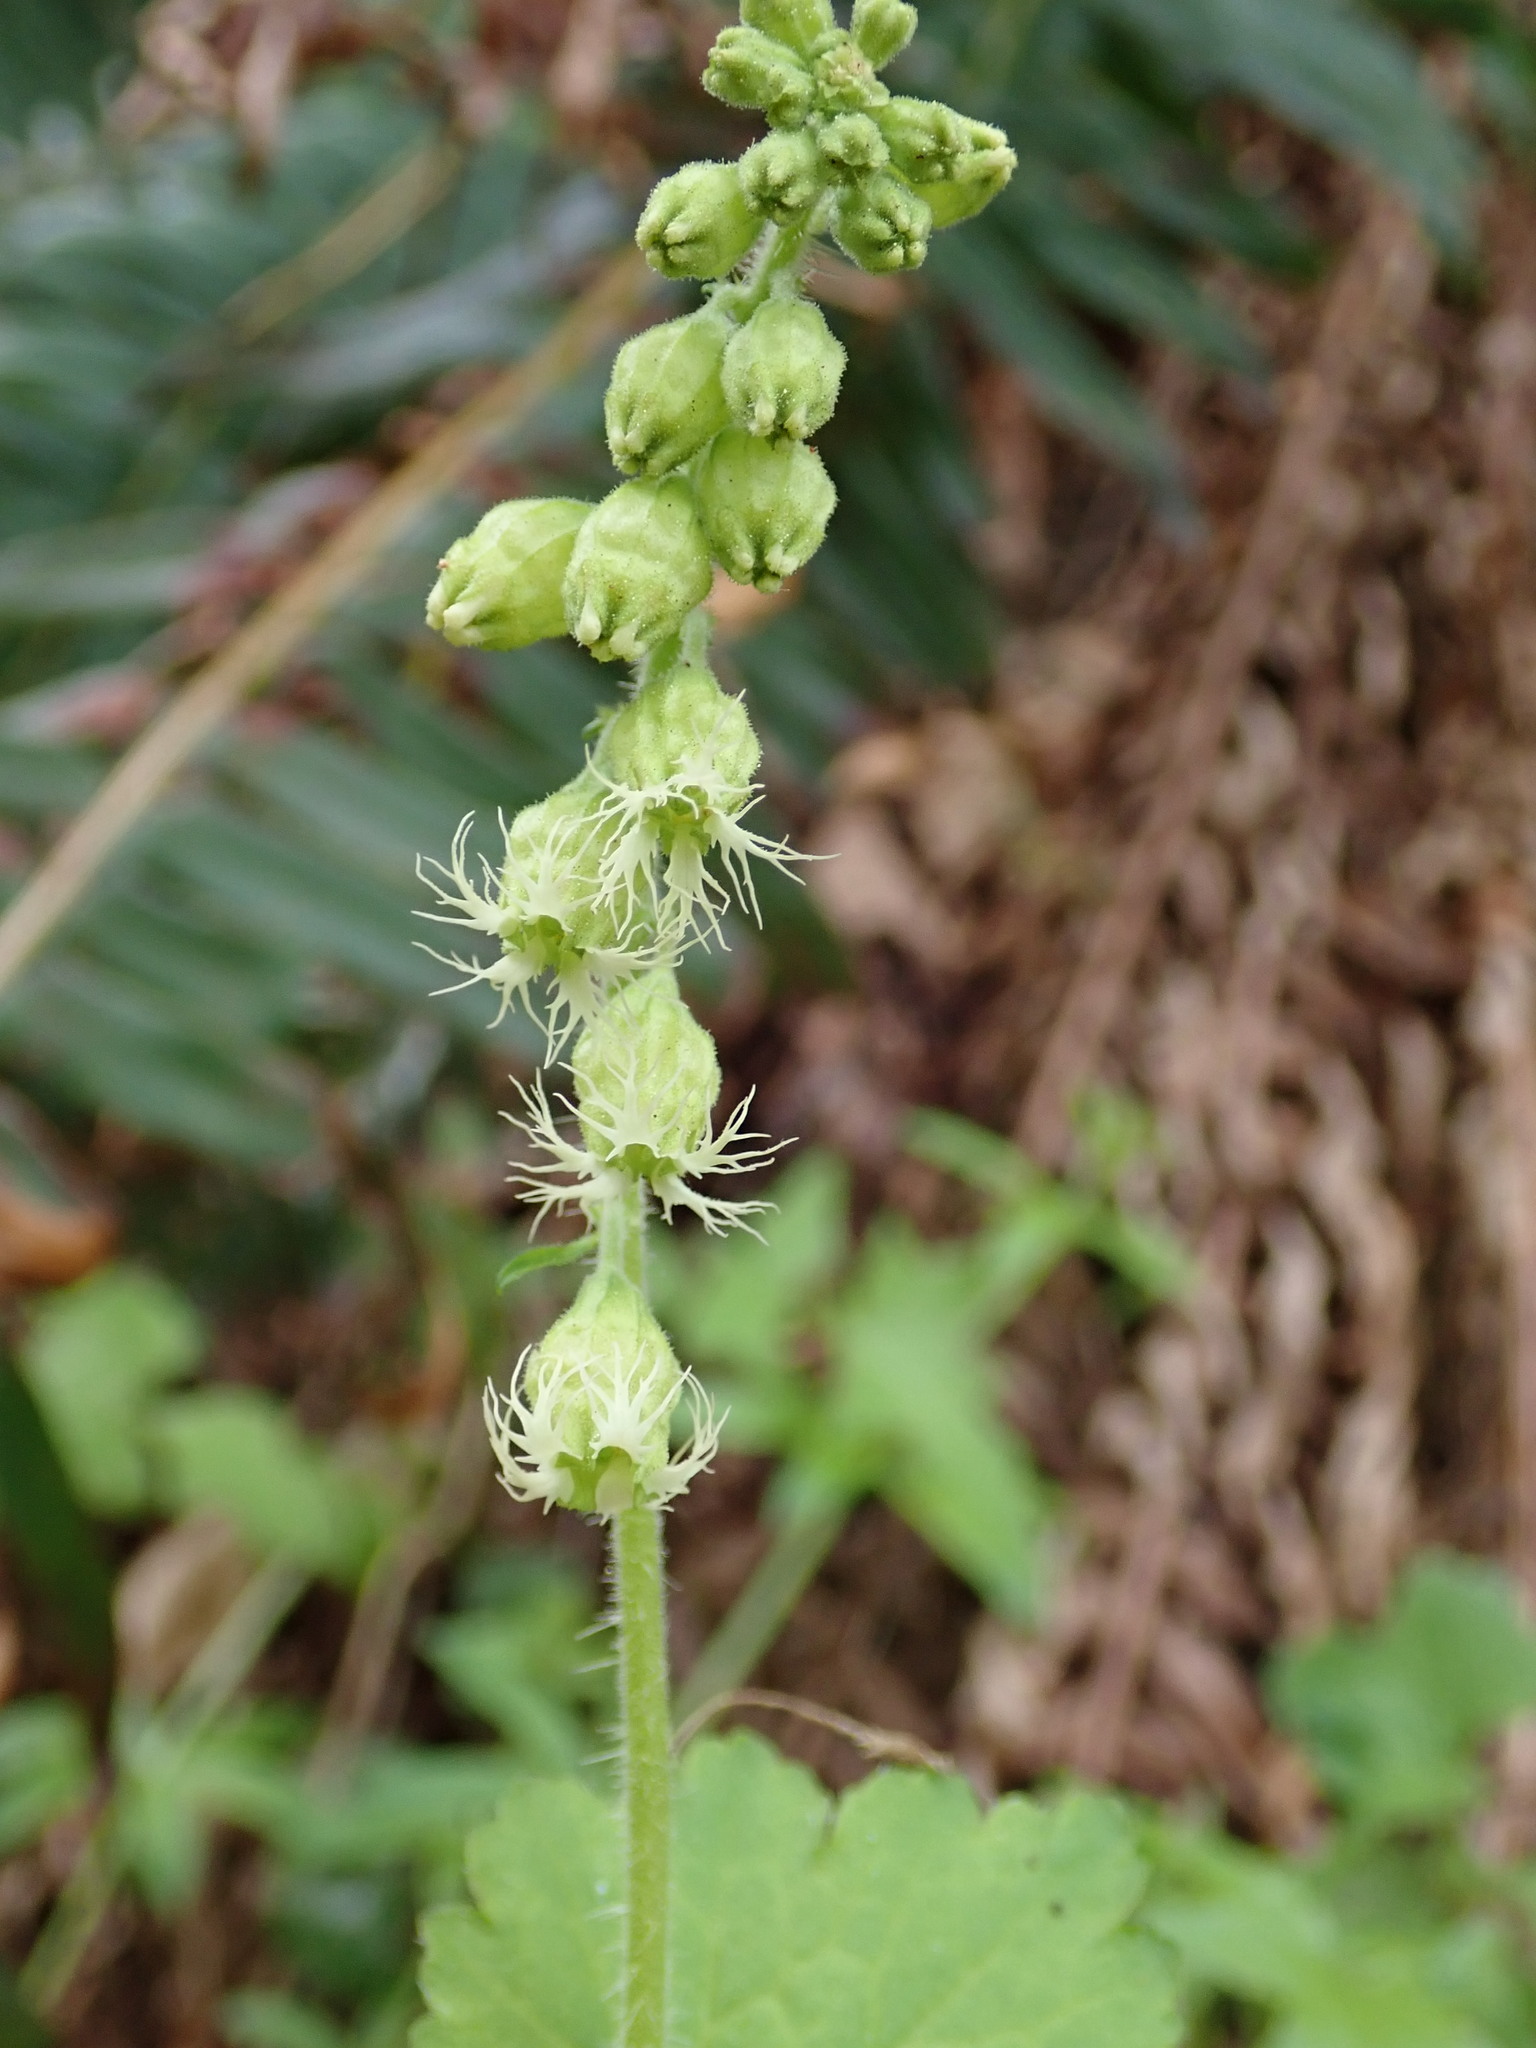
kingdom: Plantae
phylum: Tracheophyta
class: Magnoliopsida
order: Saxifragales
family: Saxifragaceae
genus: Tellima
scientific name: Tellima grandiflora
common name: Fringecups
